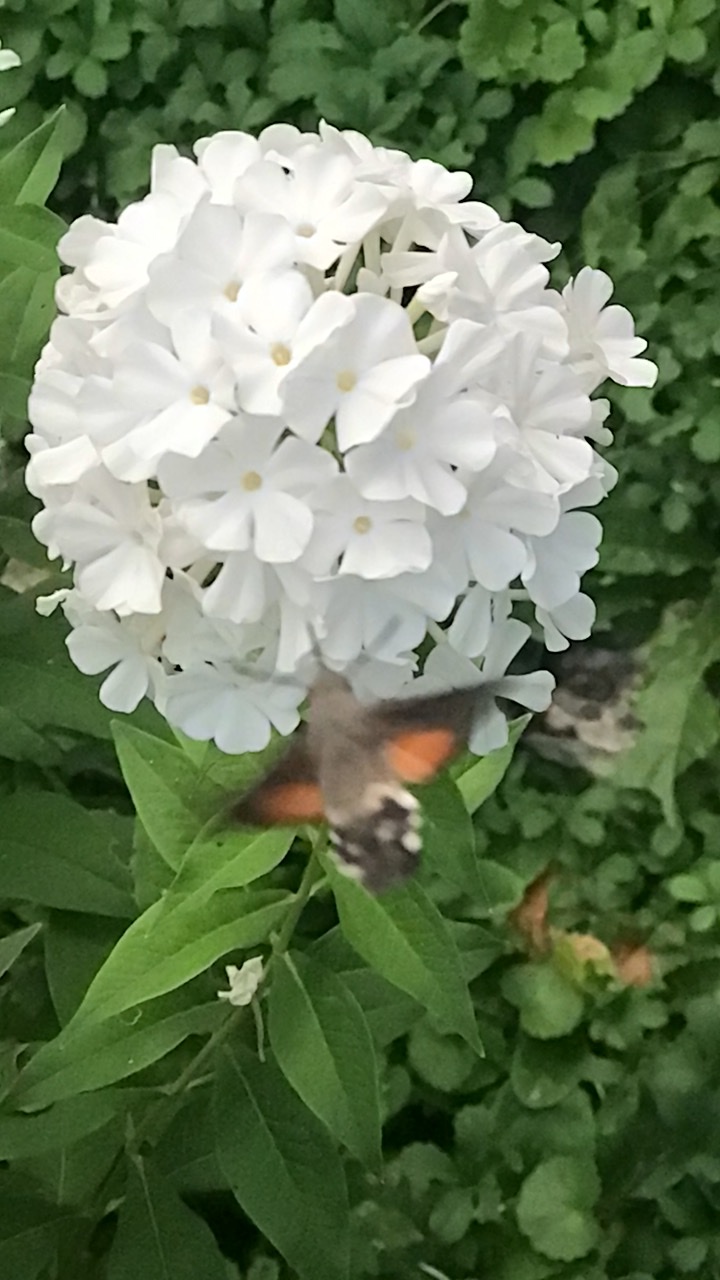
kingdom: Animalia
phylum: Arthropoda
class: Insecta
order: Lepidoptera
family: Sphingidae
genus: Macroglossum
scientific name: Macroglossum stellatarum
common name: Humming-bird hawk-moth
